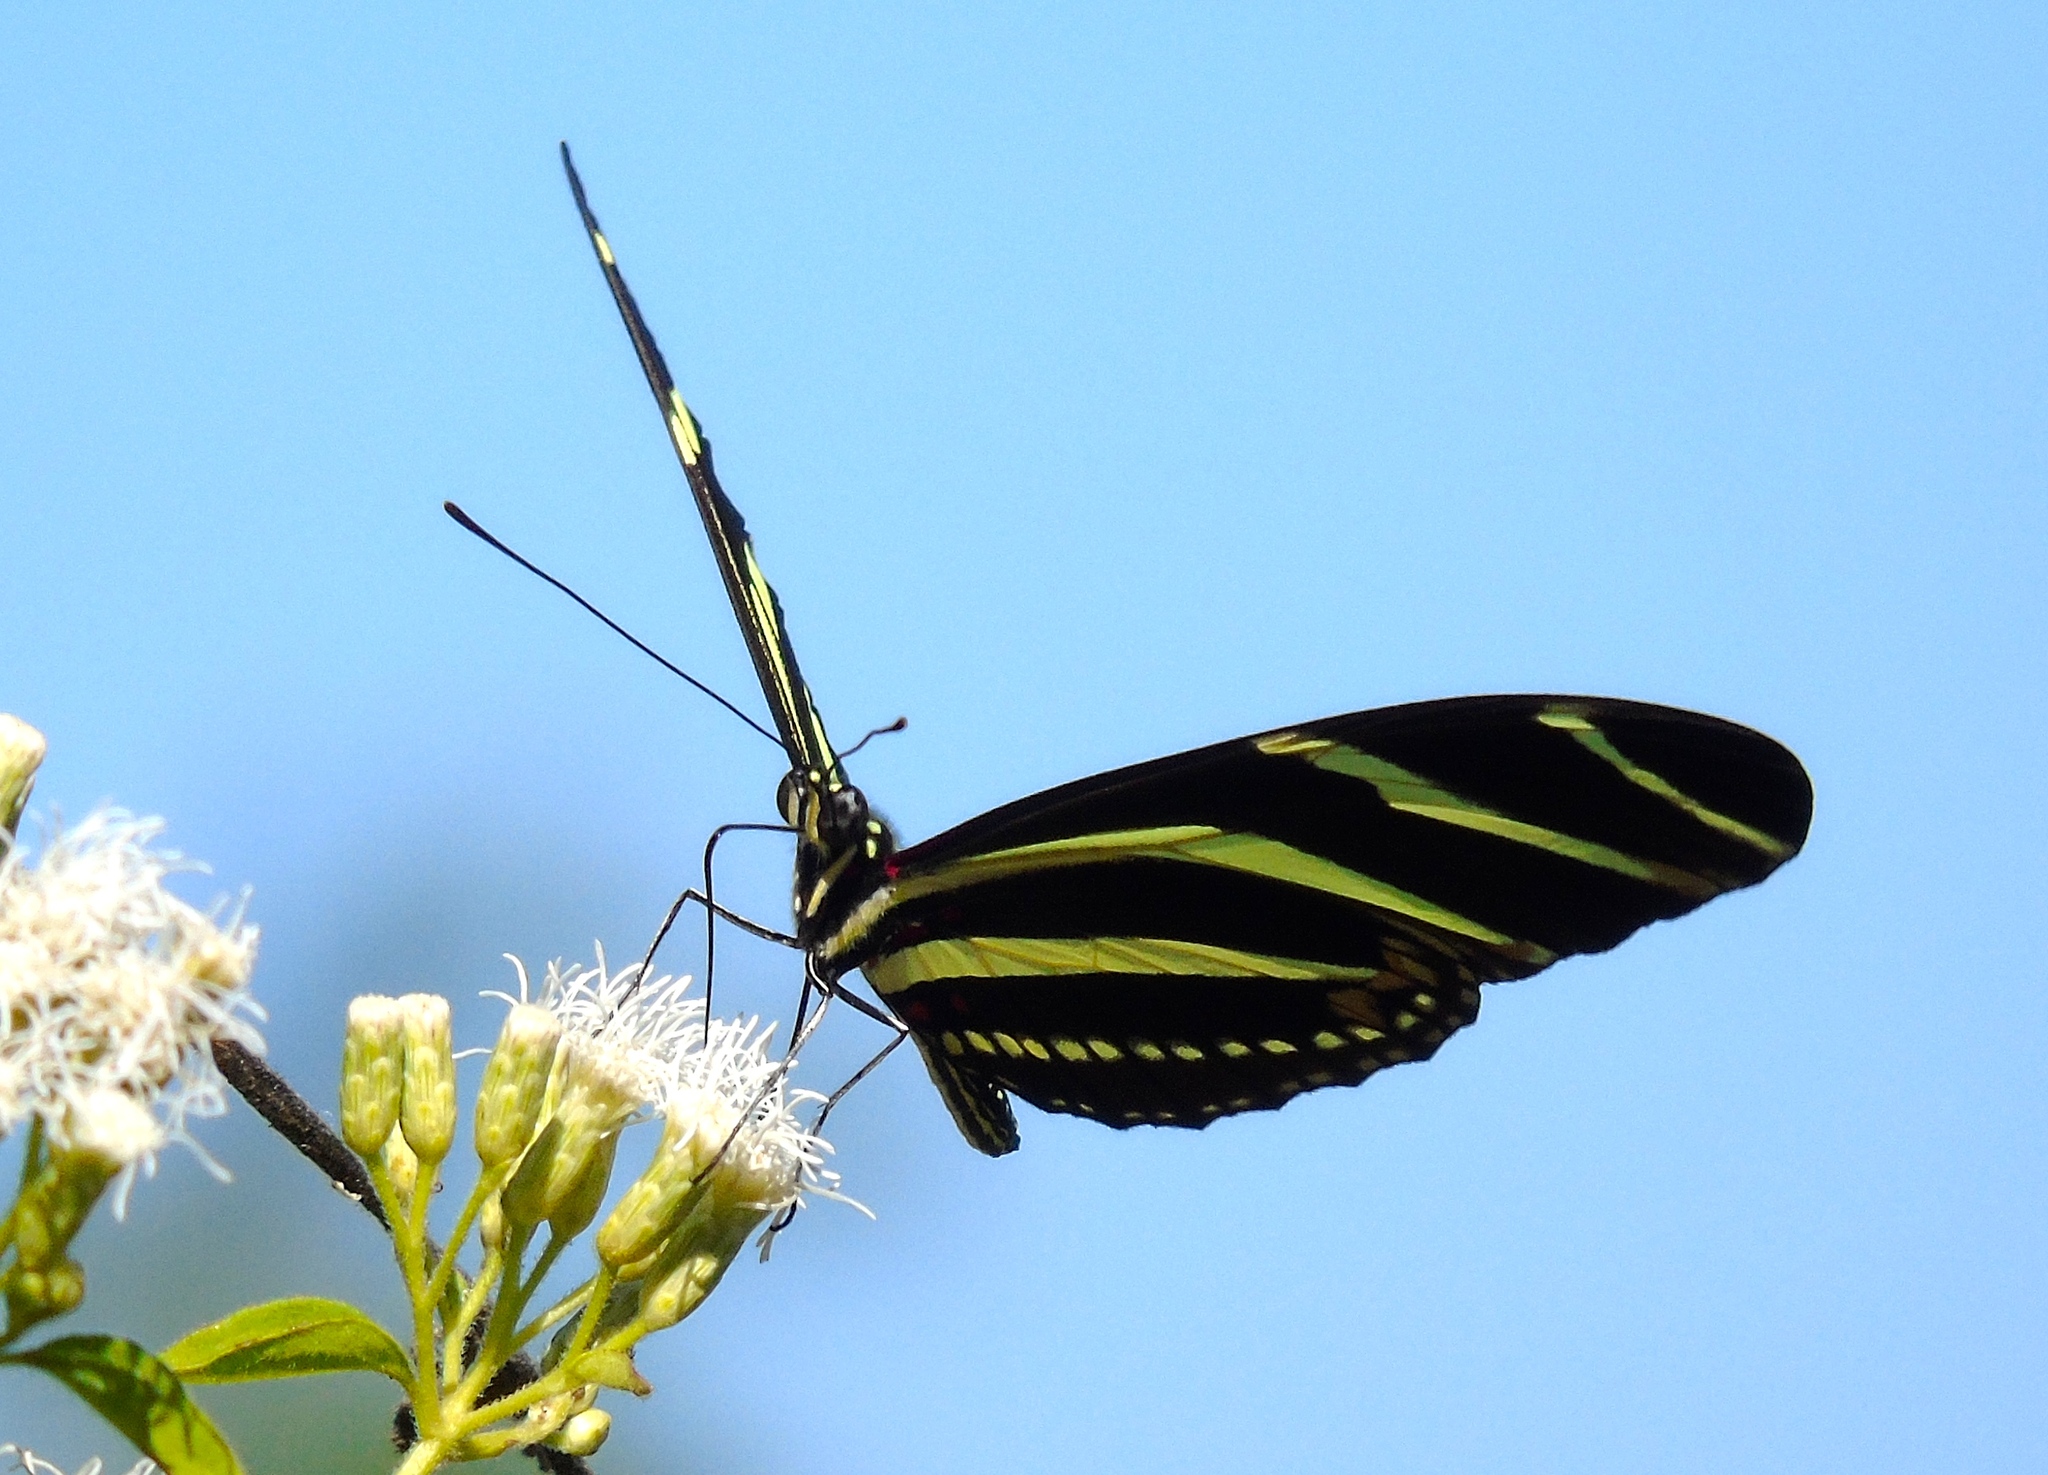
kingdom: Animalia
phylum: Arthropoda
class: Insecta
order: Lepidoptera
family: Nymphalidae
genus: Heliconius
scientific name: Heliconius charithonia
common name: Zebra long wing
